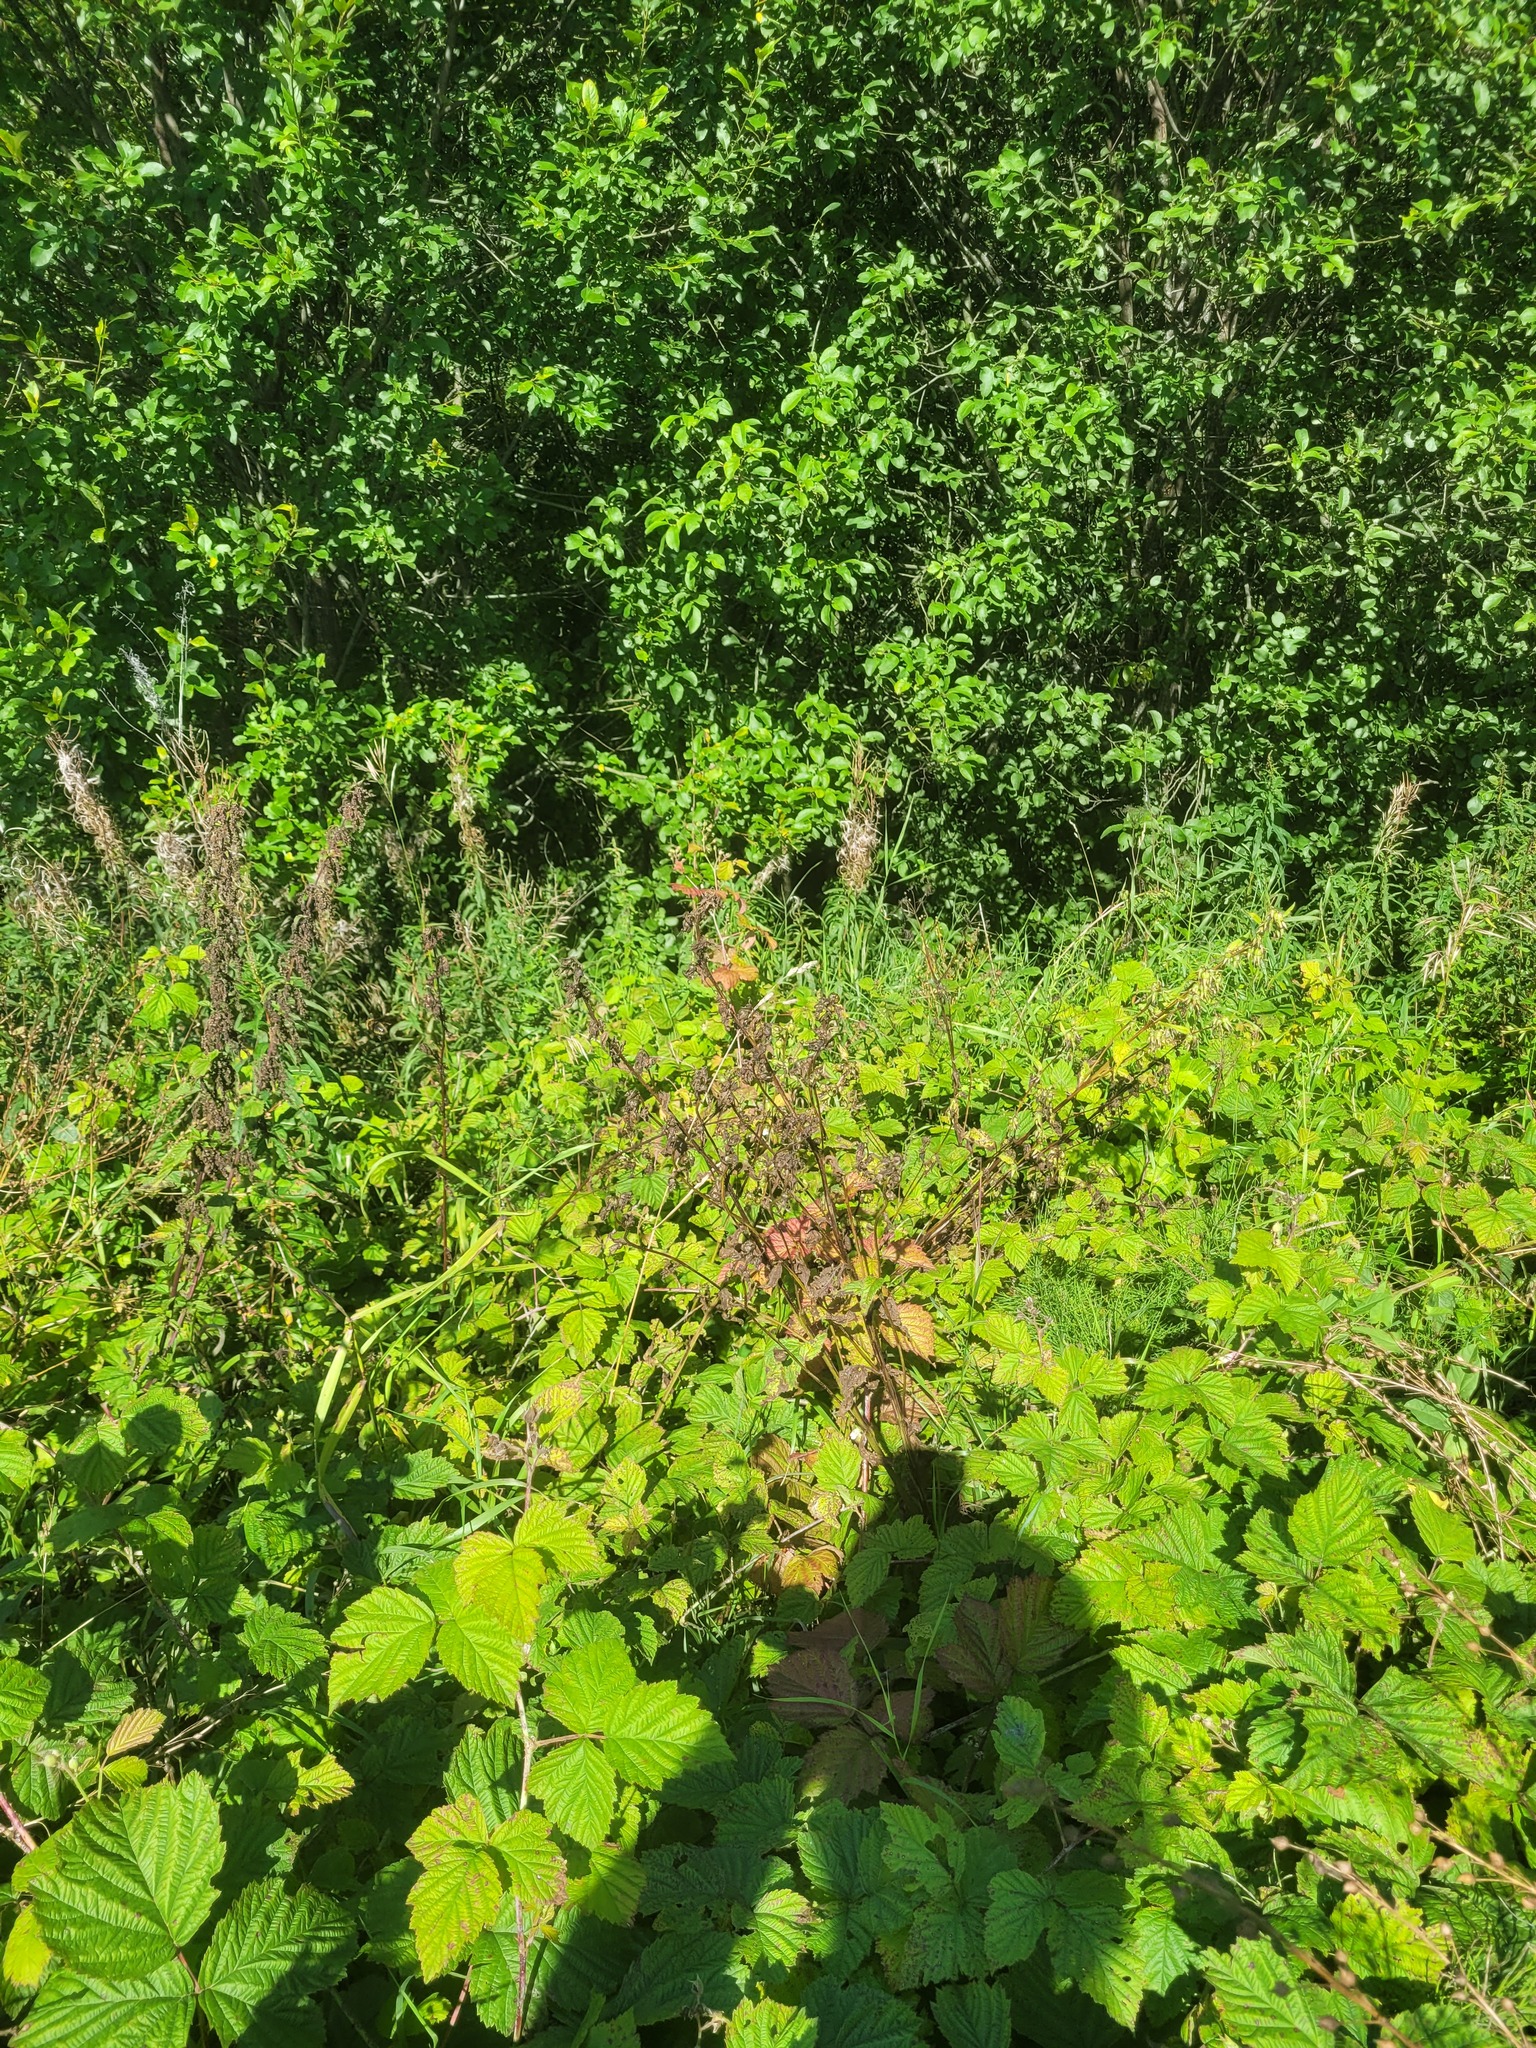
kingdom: Plantae
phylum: Tracheophyta
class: Magnoliopsida
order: Asterales
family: Campanulaceae
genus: Campanula
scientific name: Campanula trachelium
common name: Nettle-leaved bellflower
